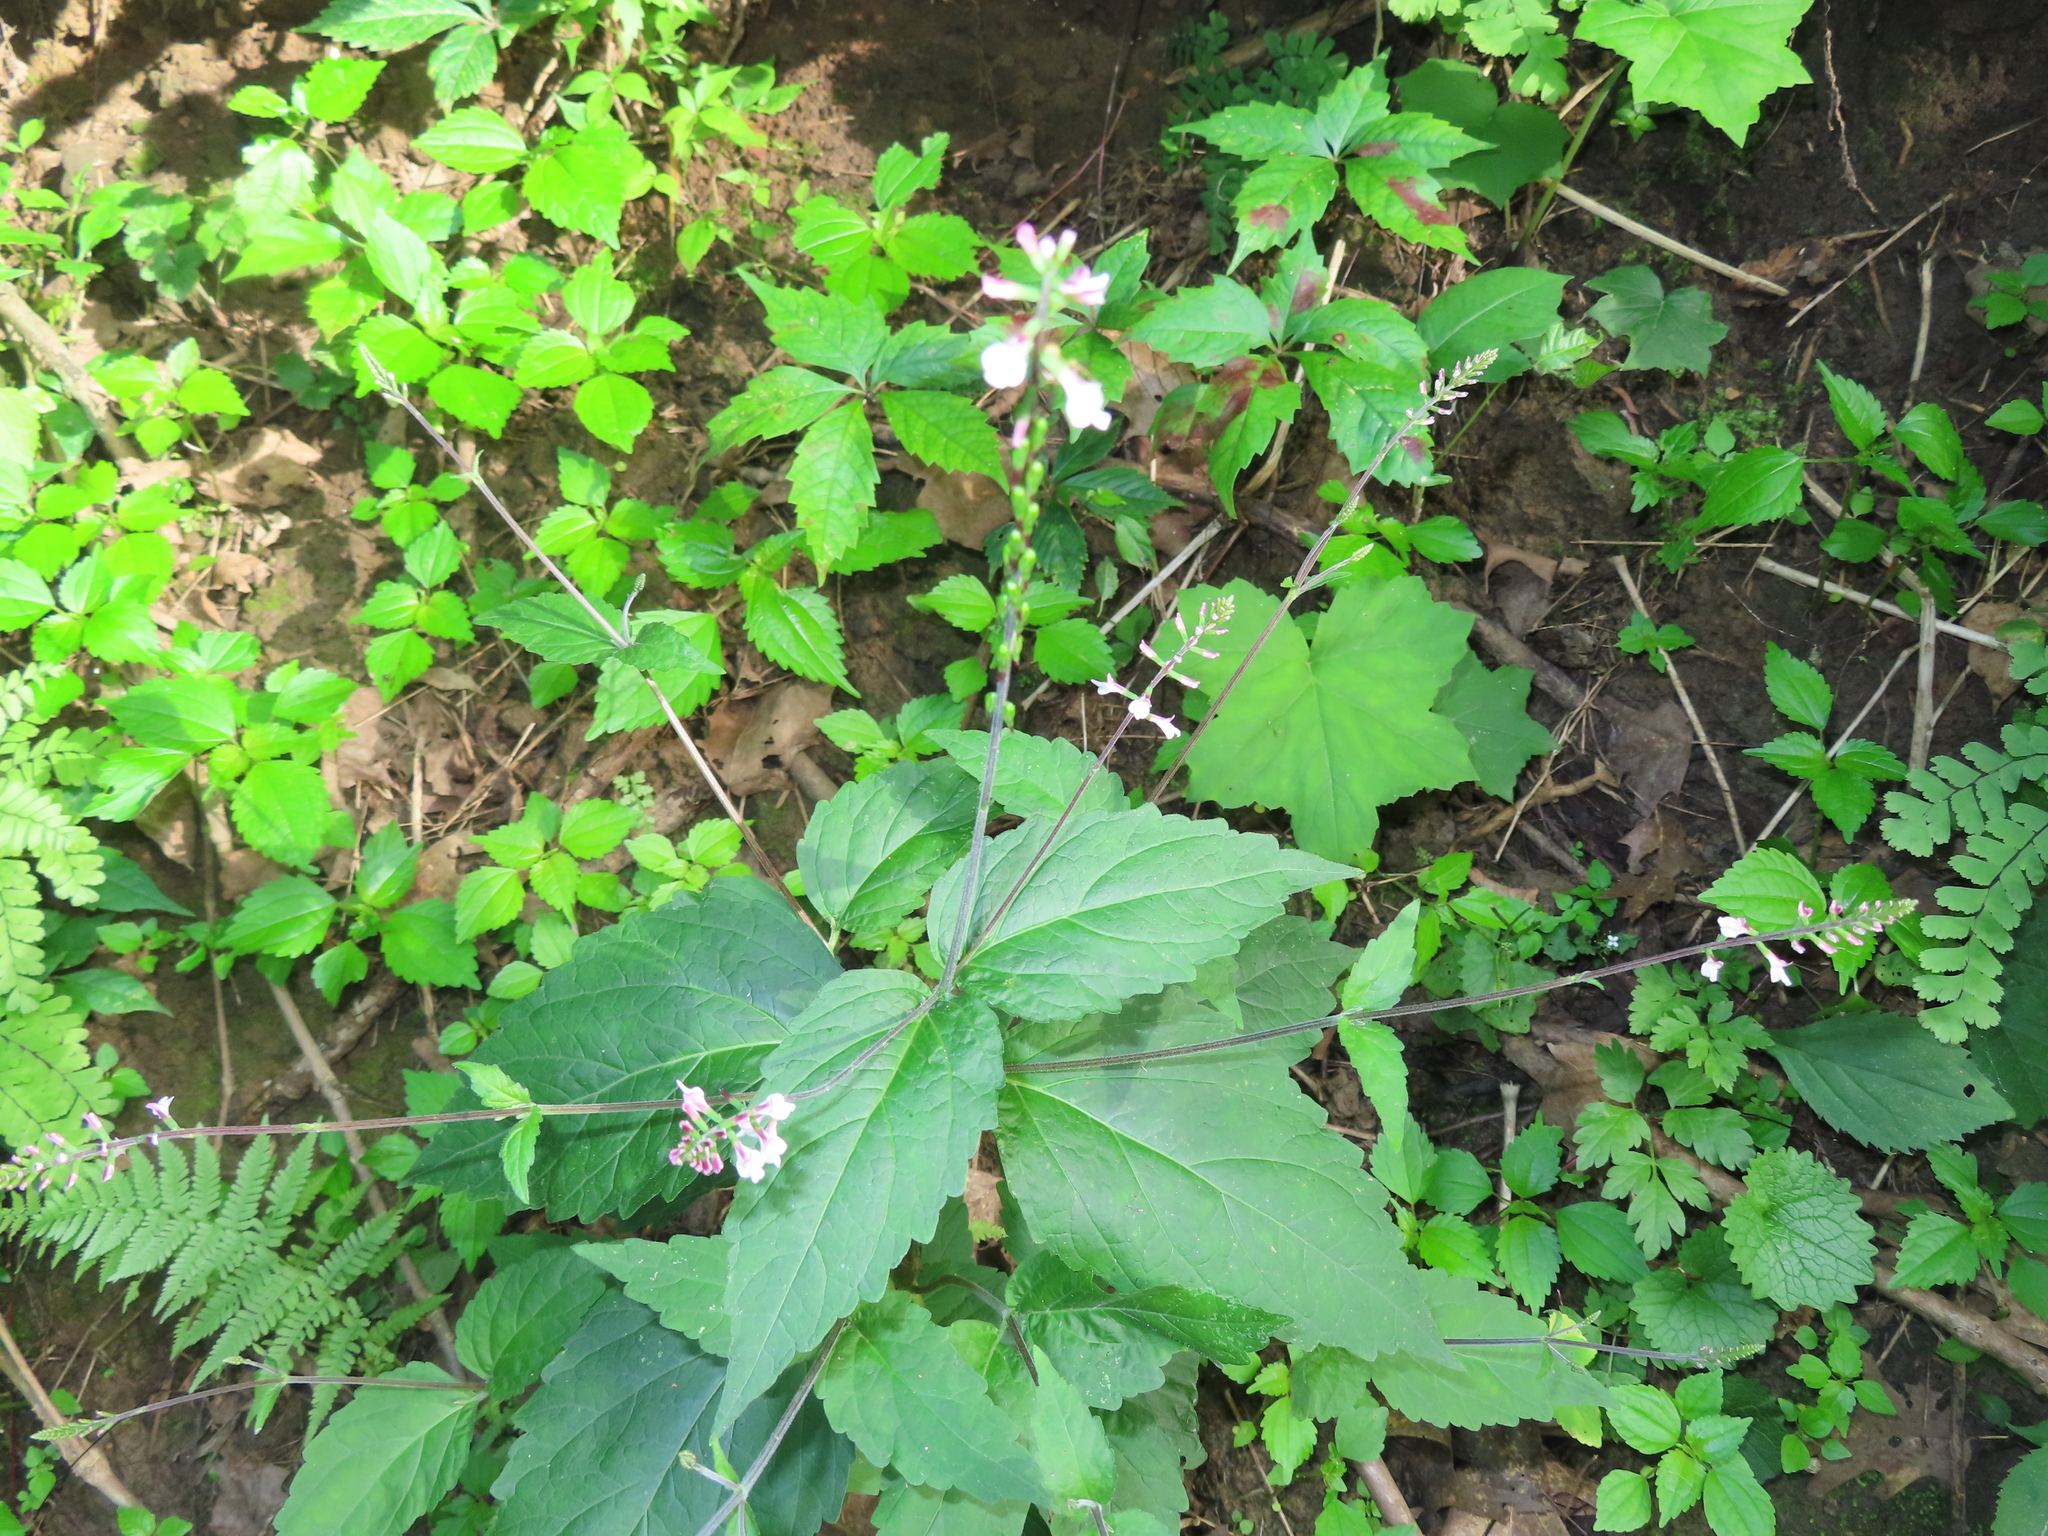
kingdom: Plantae
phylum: Tracheophyta
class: Magnoliopsida
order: Lamiales
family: Phrymaceae
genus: Phryma
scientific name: Phryma leptostachya
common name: American lopseed
